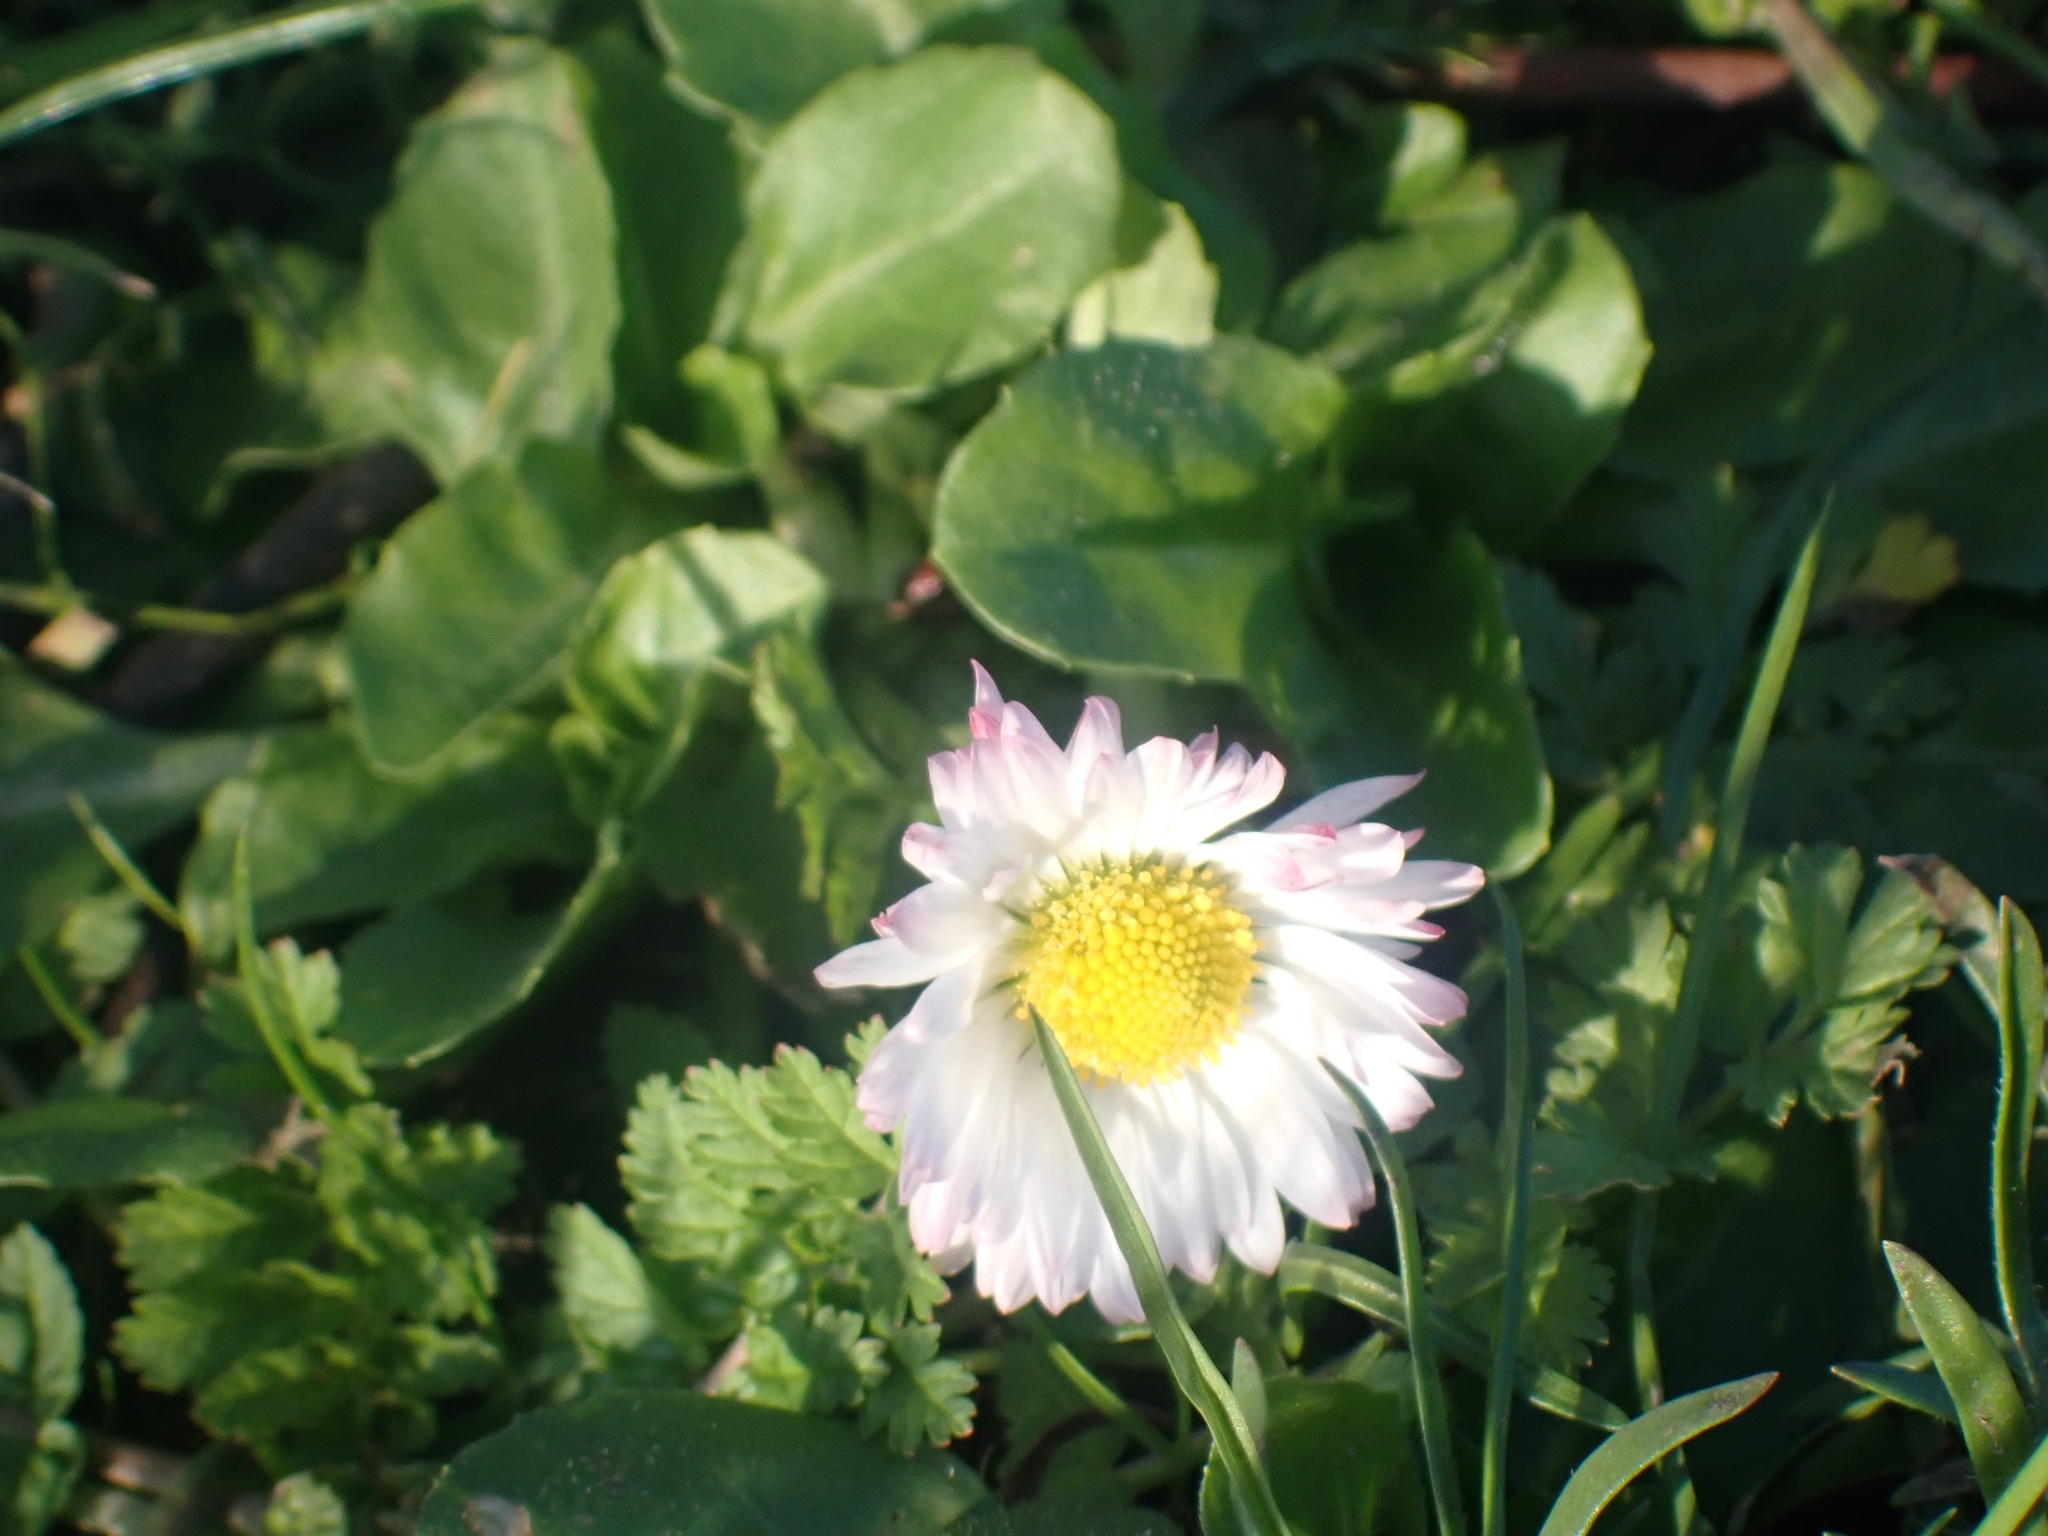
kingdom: Plantae
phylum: Tracheophyta
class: Magnoliopsida
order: Asterales
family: Asteraceae
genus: Bellis
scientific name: Bellis perennis
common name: Lawndaisy
